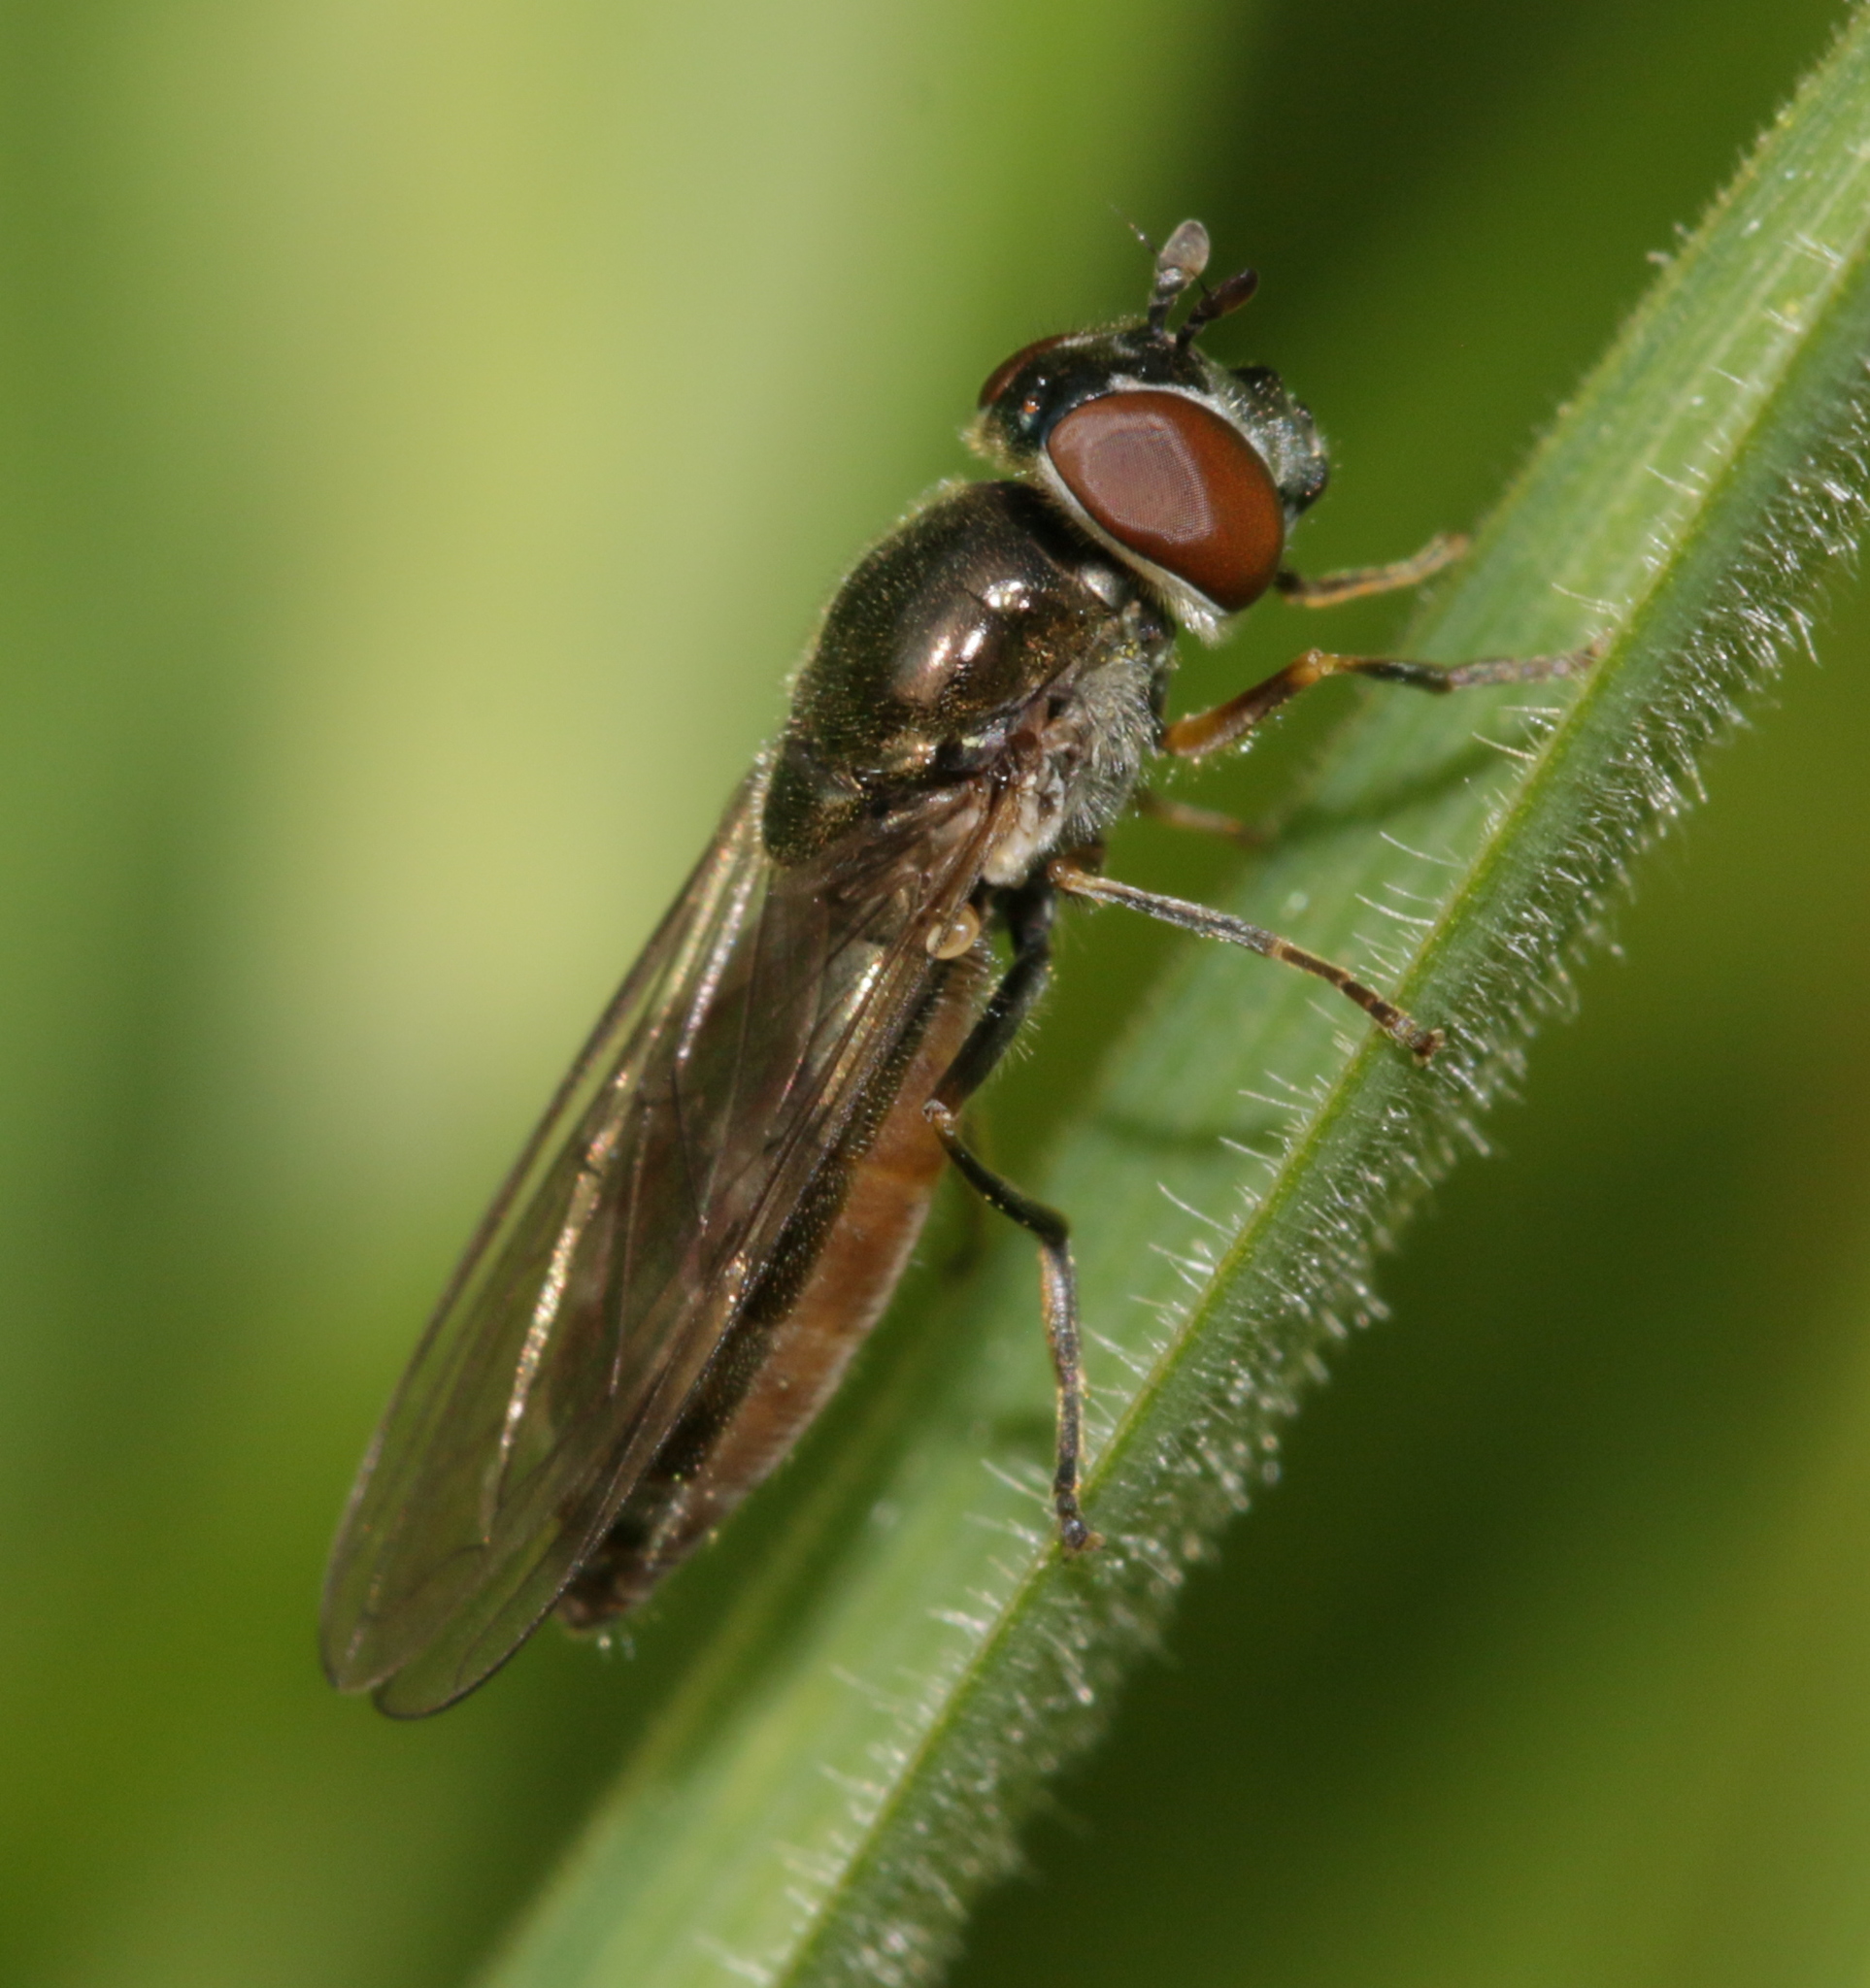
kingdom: Animalia
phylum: Arthropoda
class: Insecta
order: Diptera
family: Syrphidae
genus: Platycheirus
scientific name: Platycheirus albimanus
